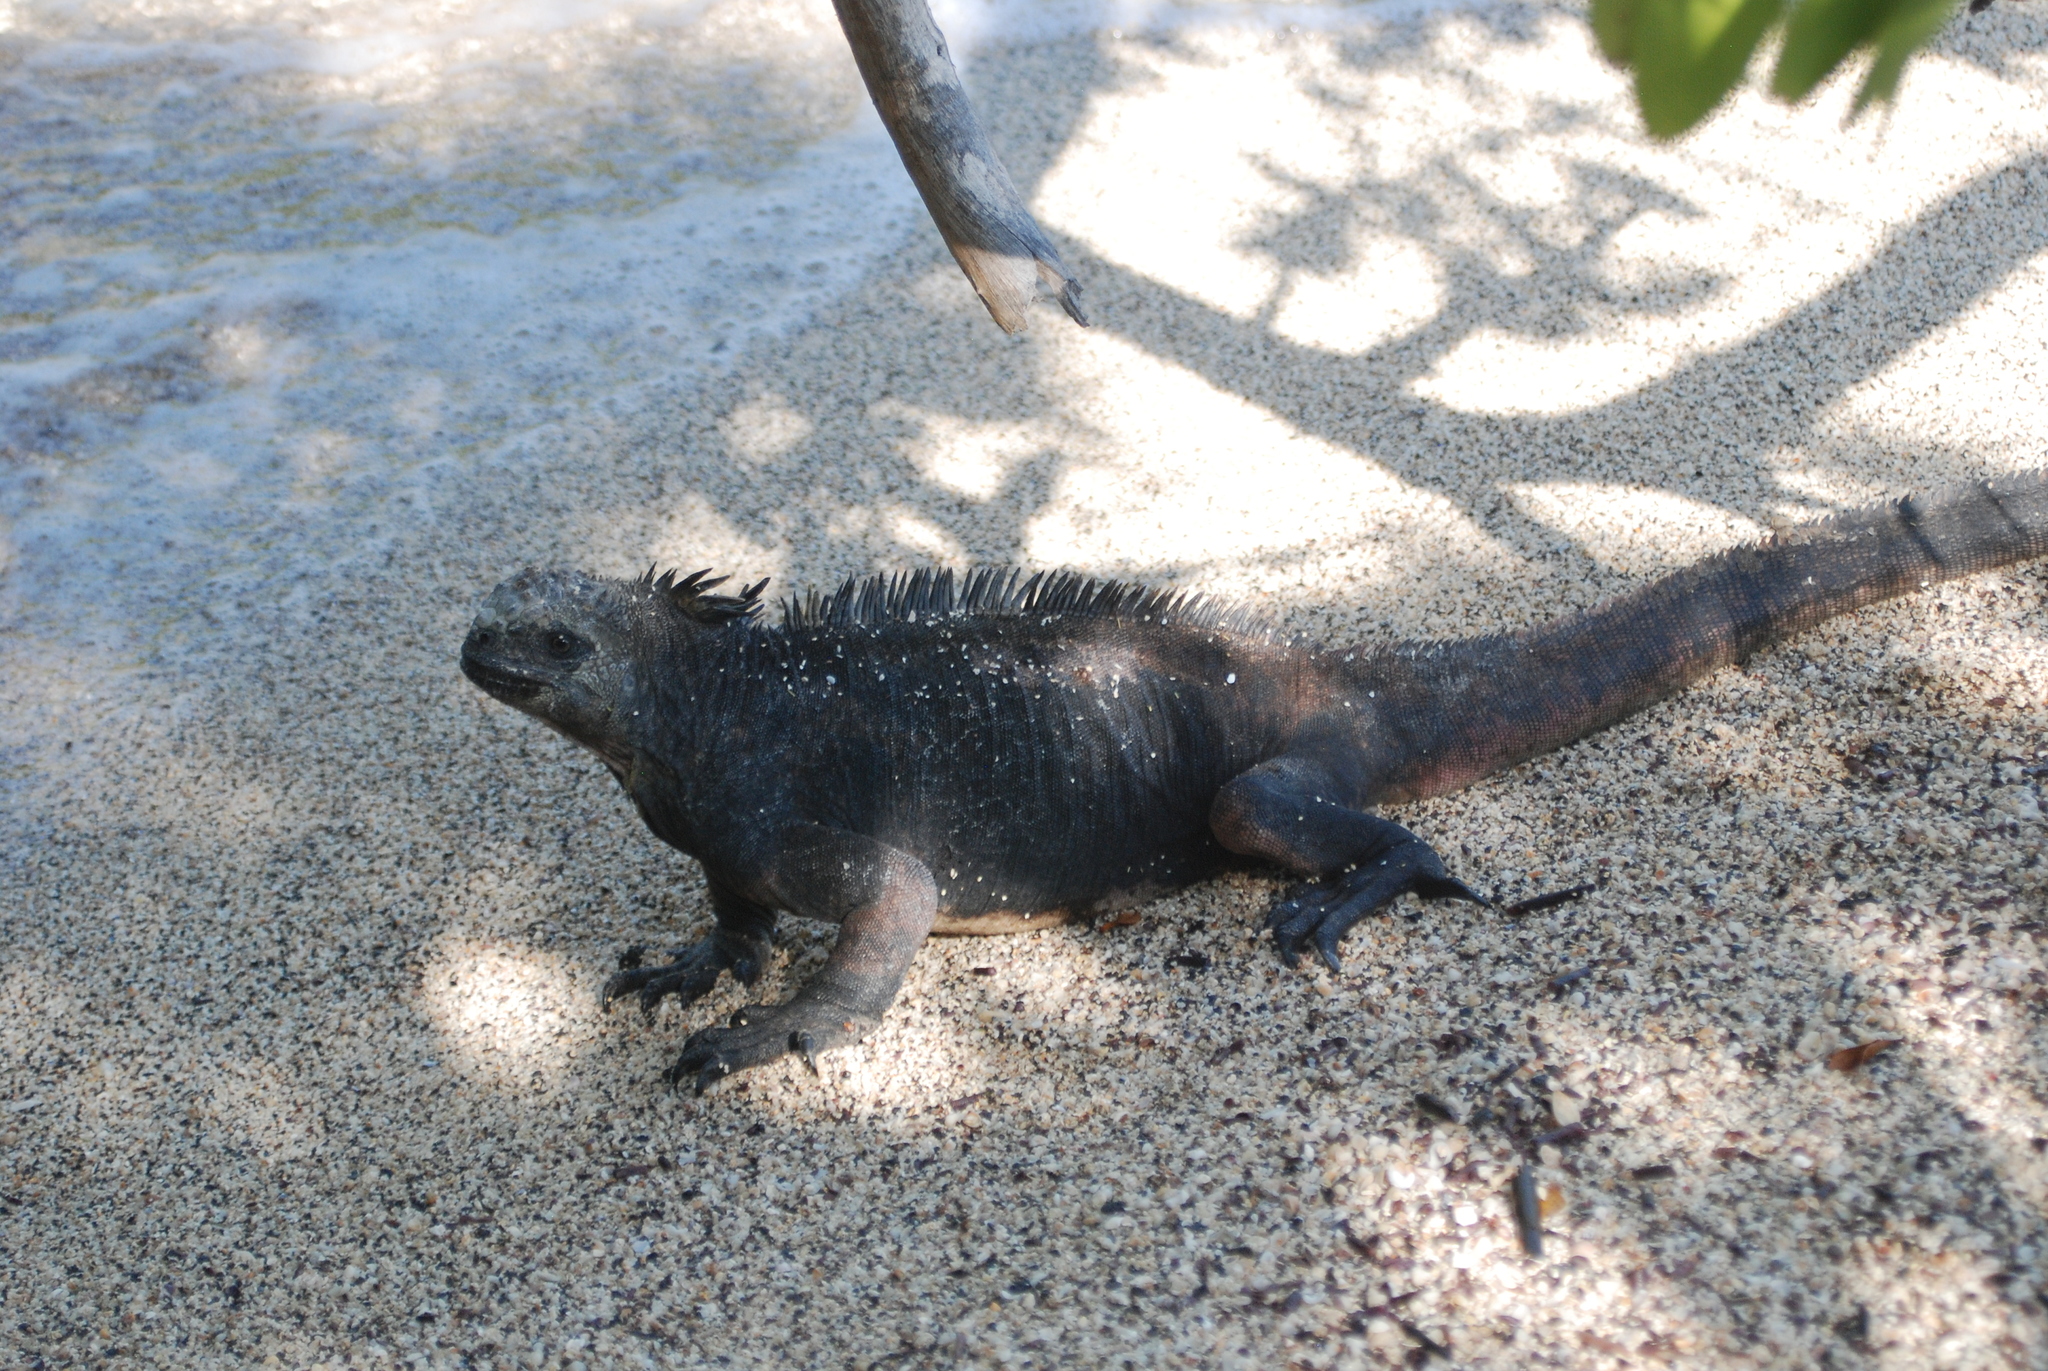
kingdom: Animalia
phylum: Chordata
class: Squamata
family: Iguanidae
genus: Amblyrhynchus
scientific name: Amblyrhynchus cristatus
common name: Marine iguana
